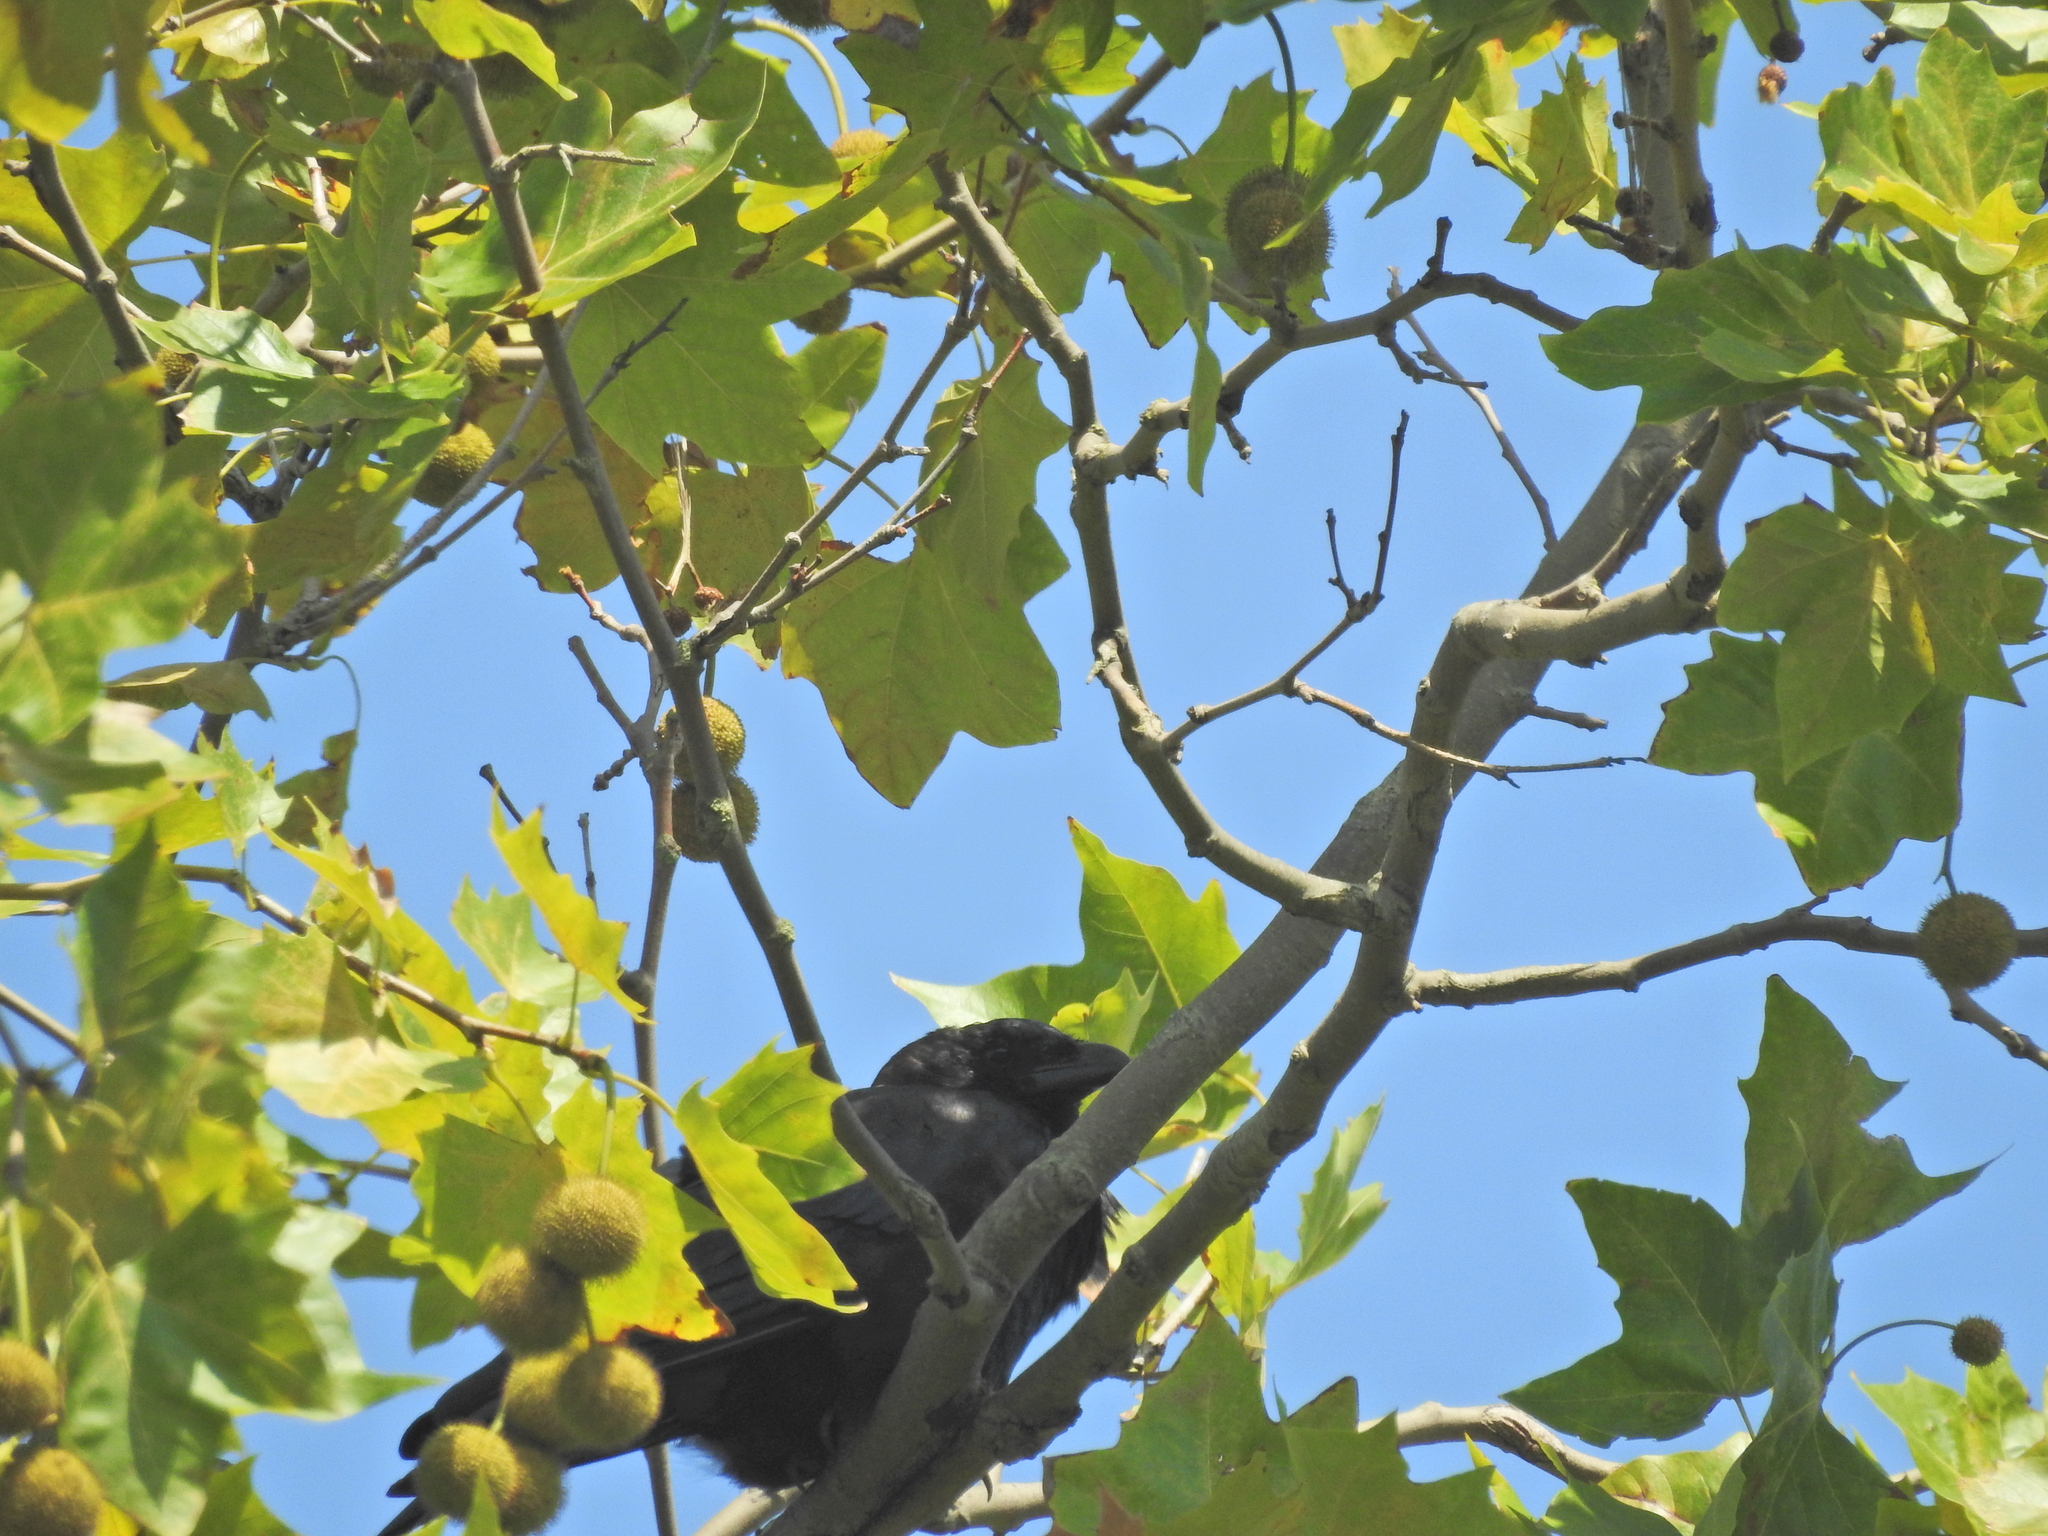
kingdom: Animalia
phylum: Chordata
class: Aves
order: Passeriformes
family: Corvidae
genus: Corvus
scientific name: Corvus corone
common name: Carrion crow
